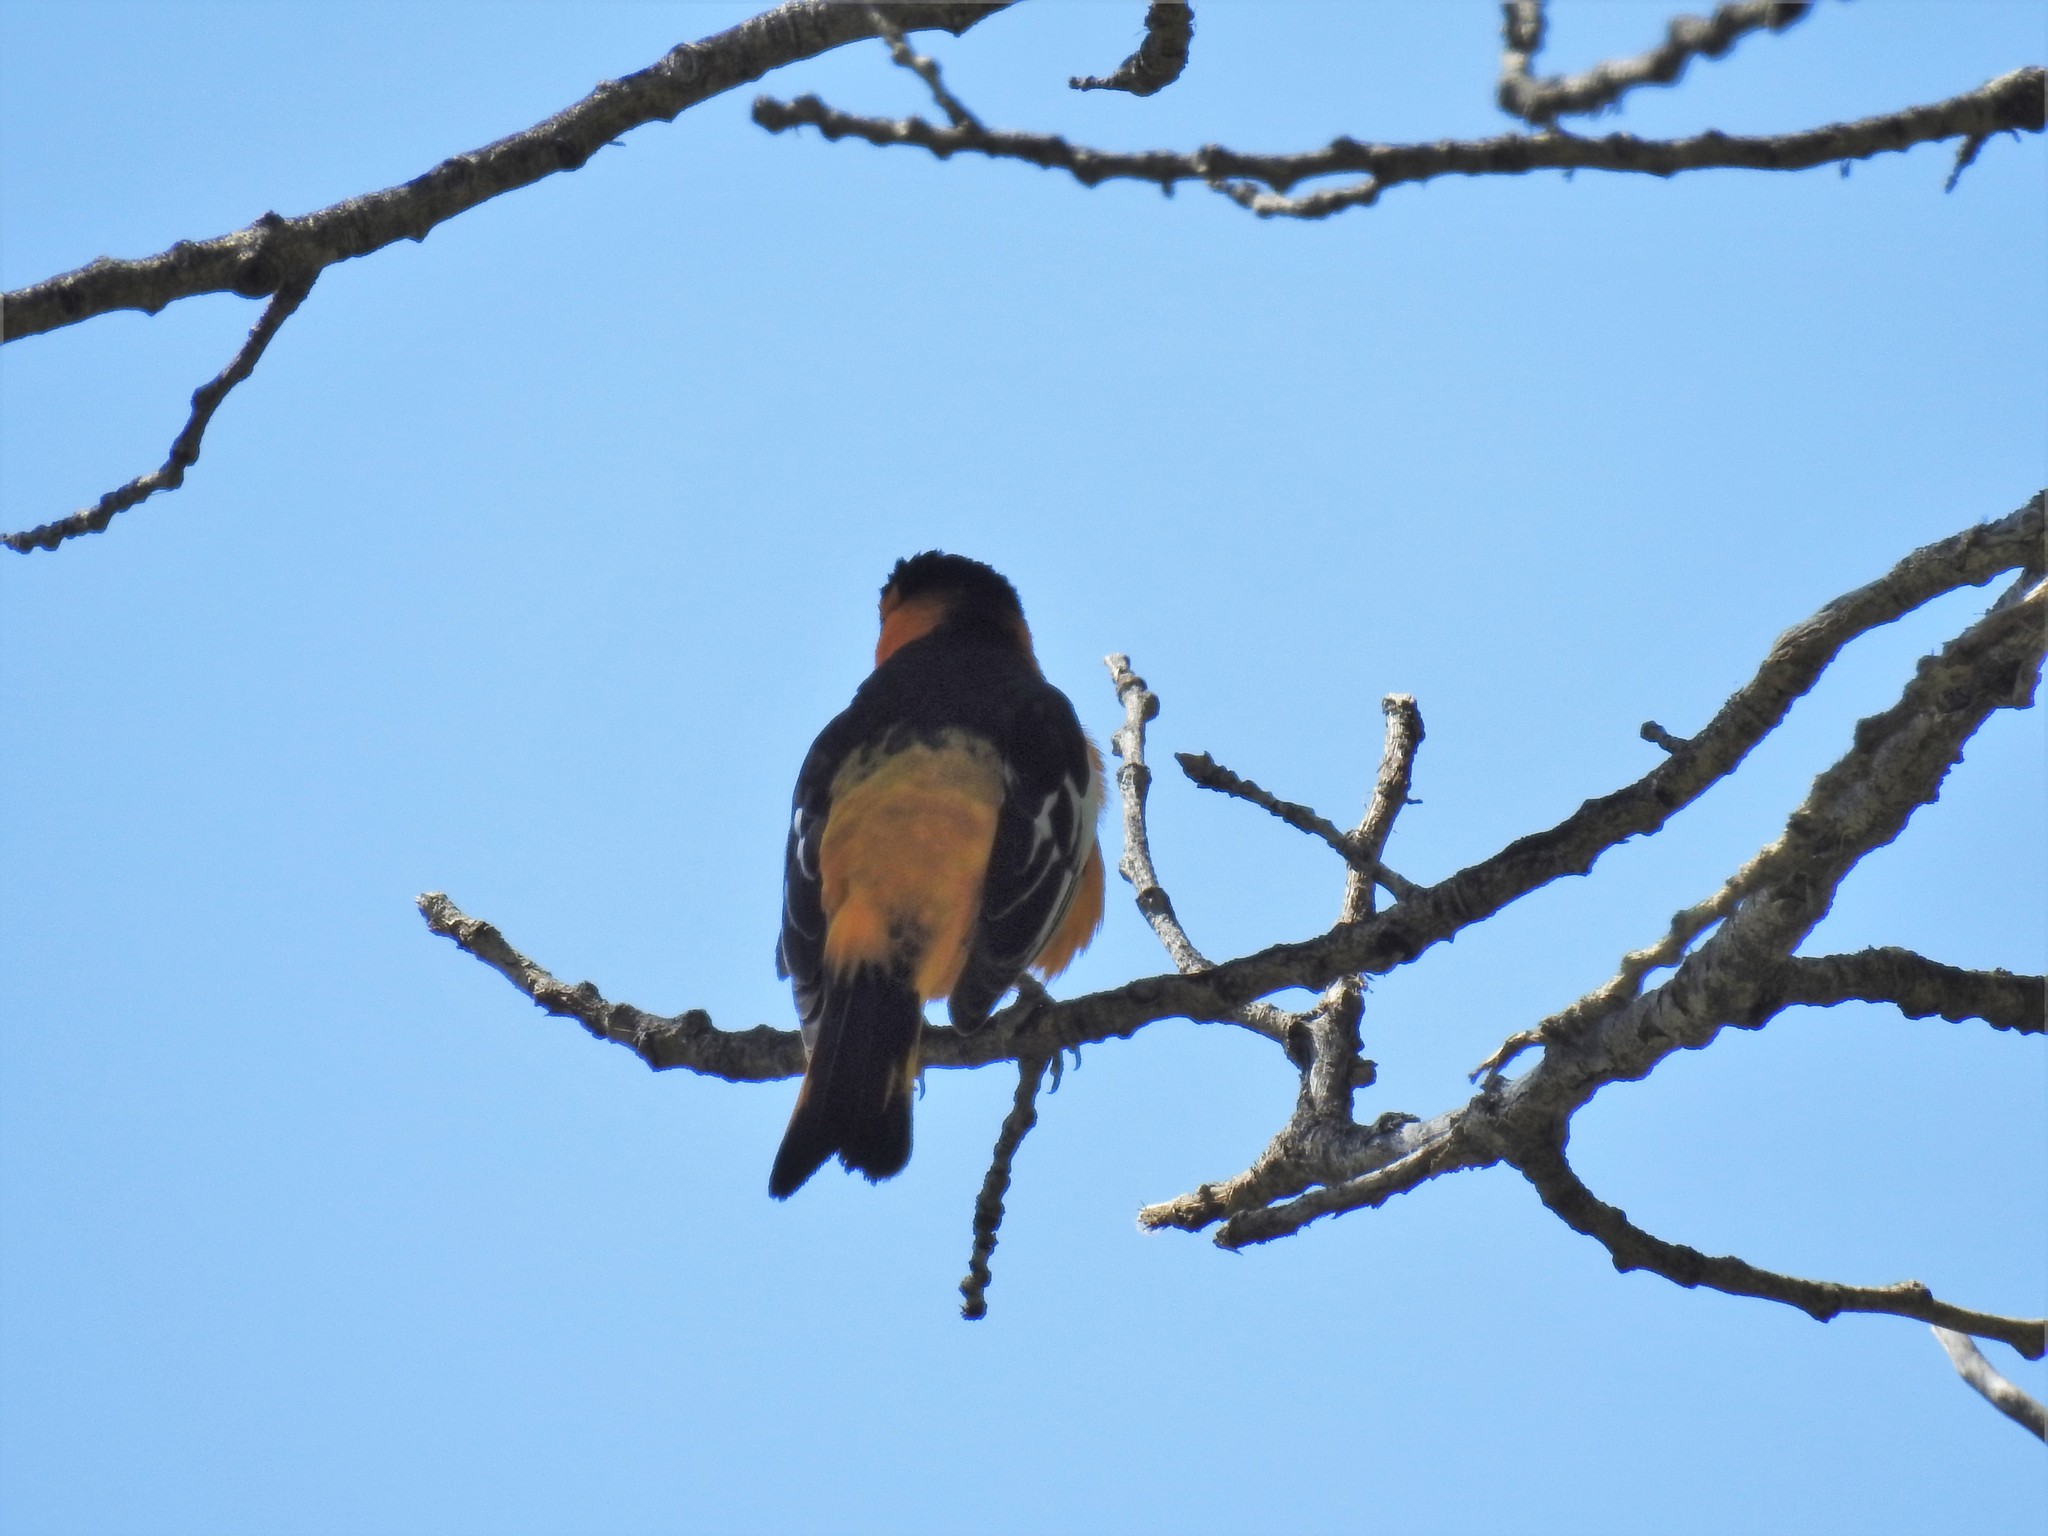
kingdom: Animalia
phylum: Chordata
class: Aves
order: Passeriformes
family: Icteridae
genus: Icterus
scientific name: Icterus bullockii
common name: Bullock's oriole
